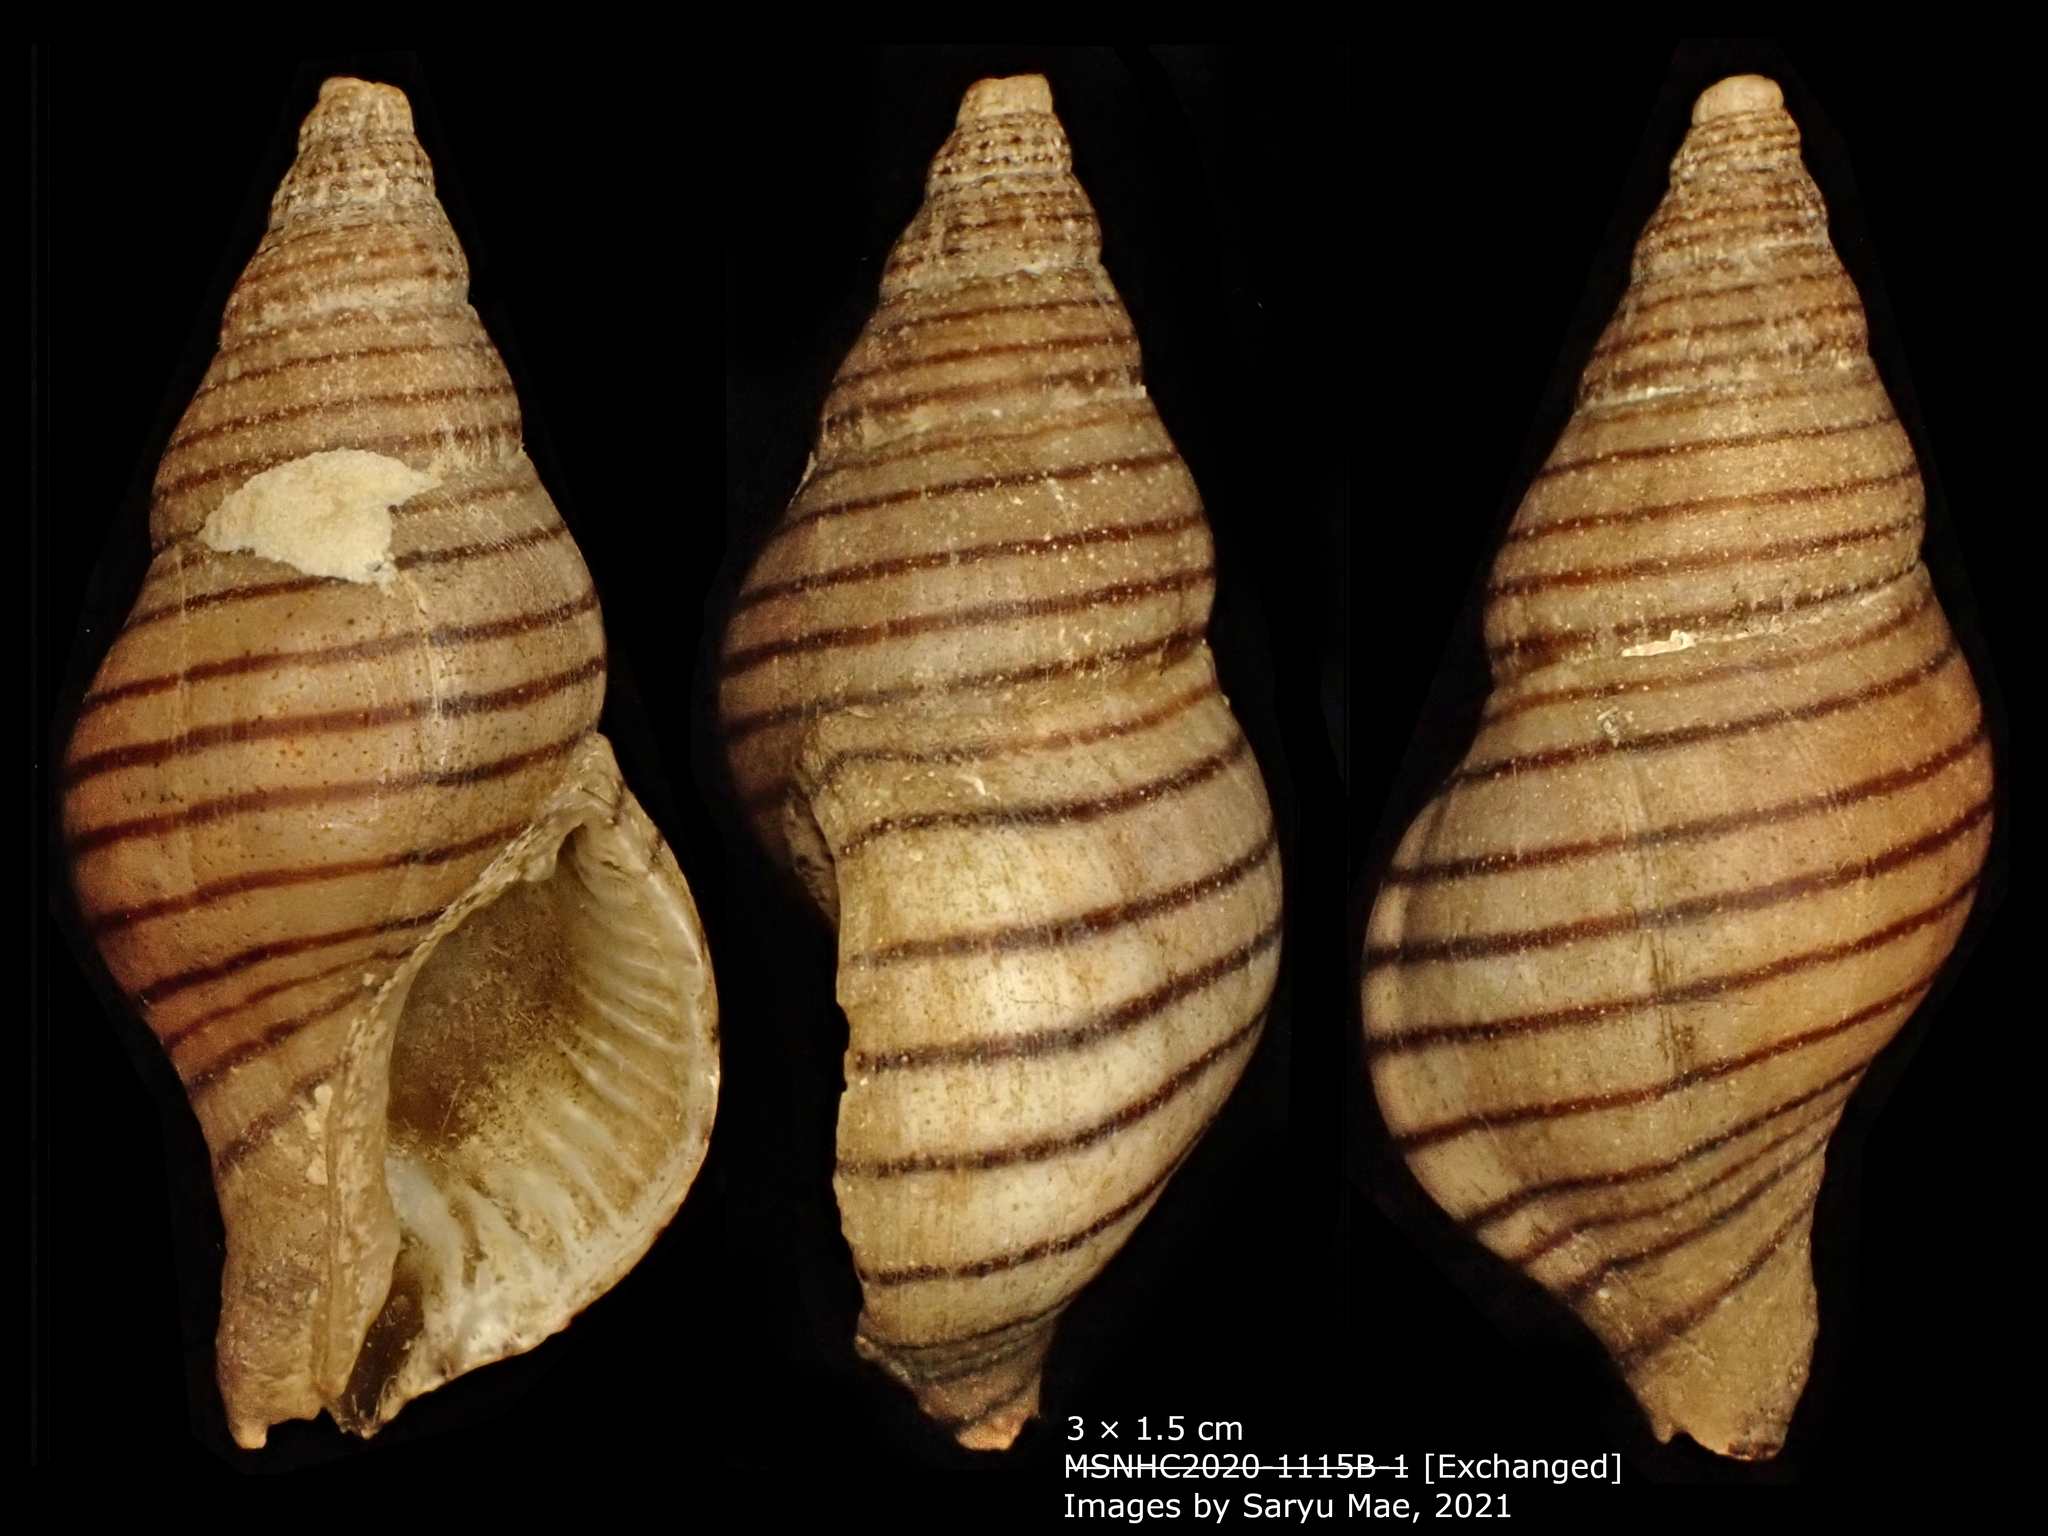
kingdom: Animalia
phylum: Mollusca
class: Gastropoda
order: Neogastropoda
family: Tudiclidae
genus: Buccinulum
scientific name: Buccinulum pallidum
